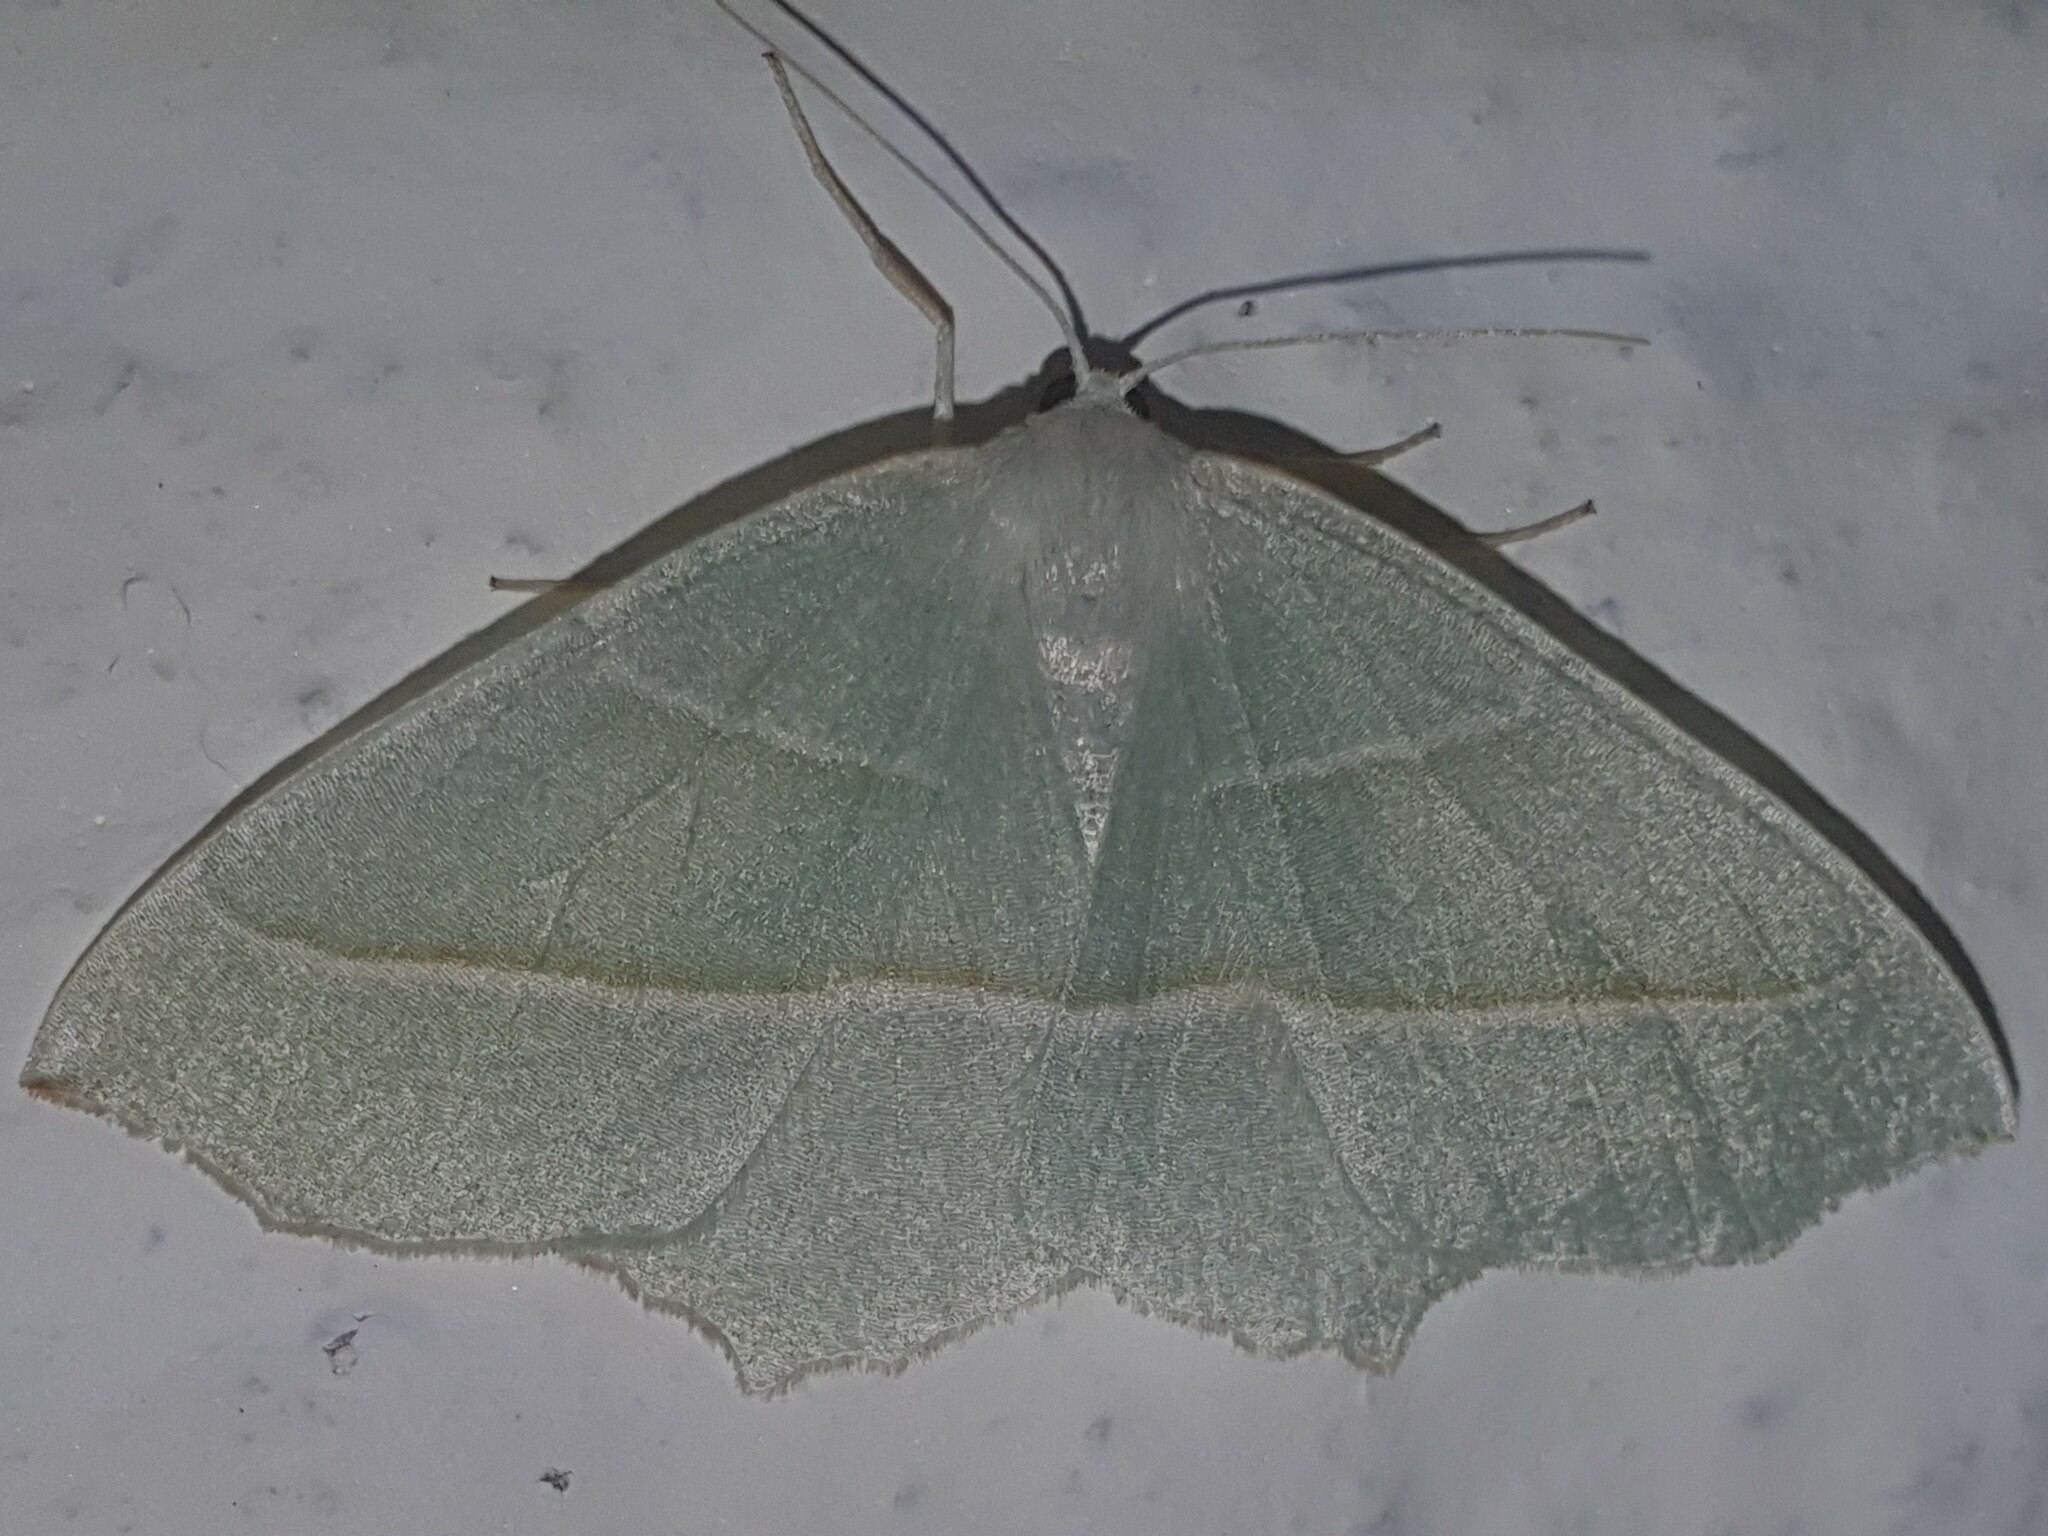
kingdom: Animalia
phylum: Arthropoda
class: Insecta
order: Lepidoptera
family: Geometridae
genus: Campaea
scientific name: Campaea margaritaria
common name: Light emerald
